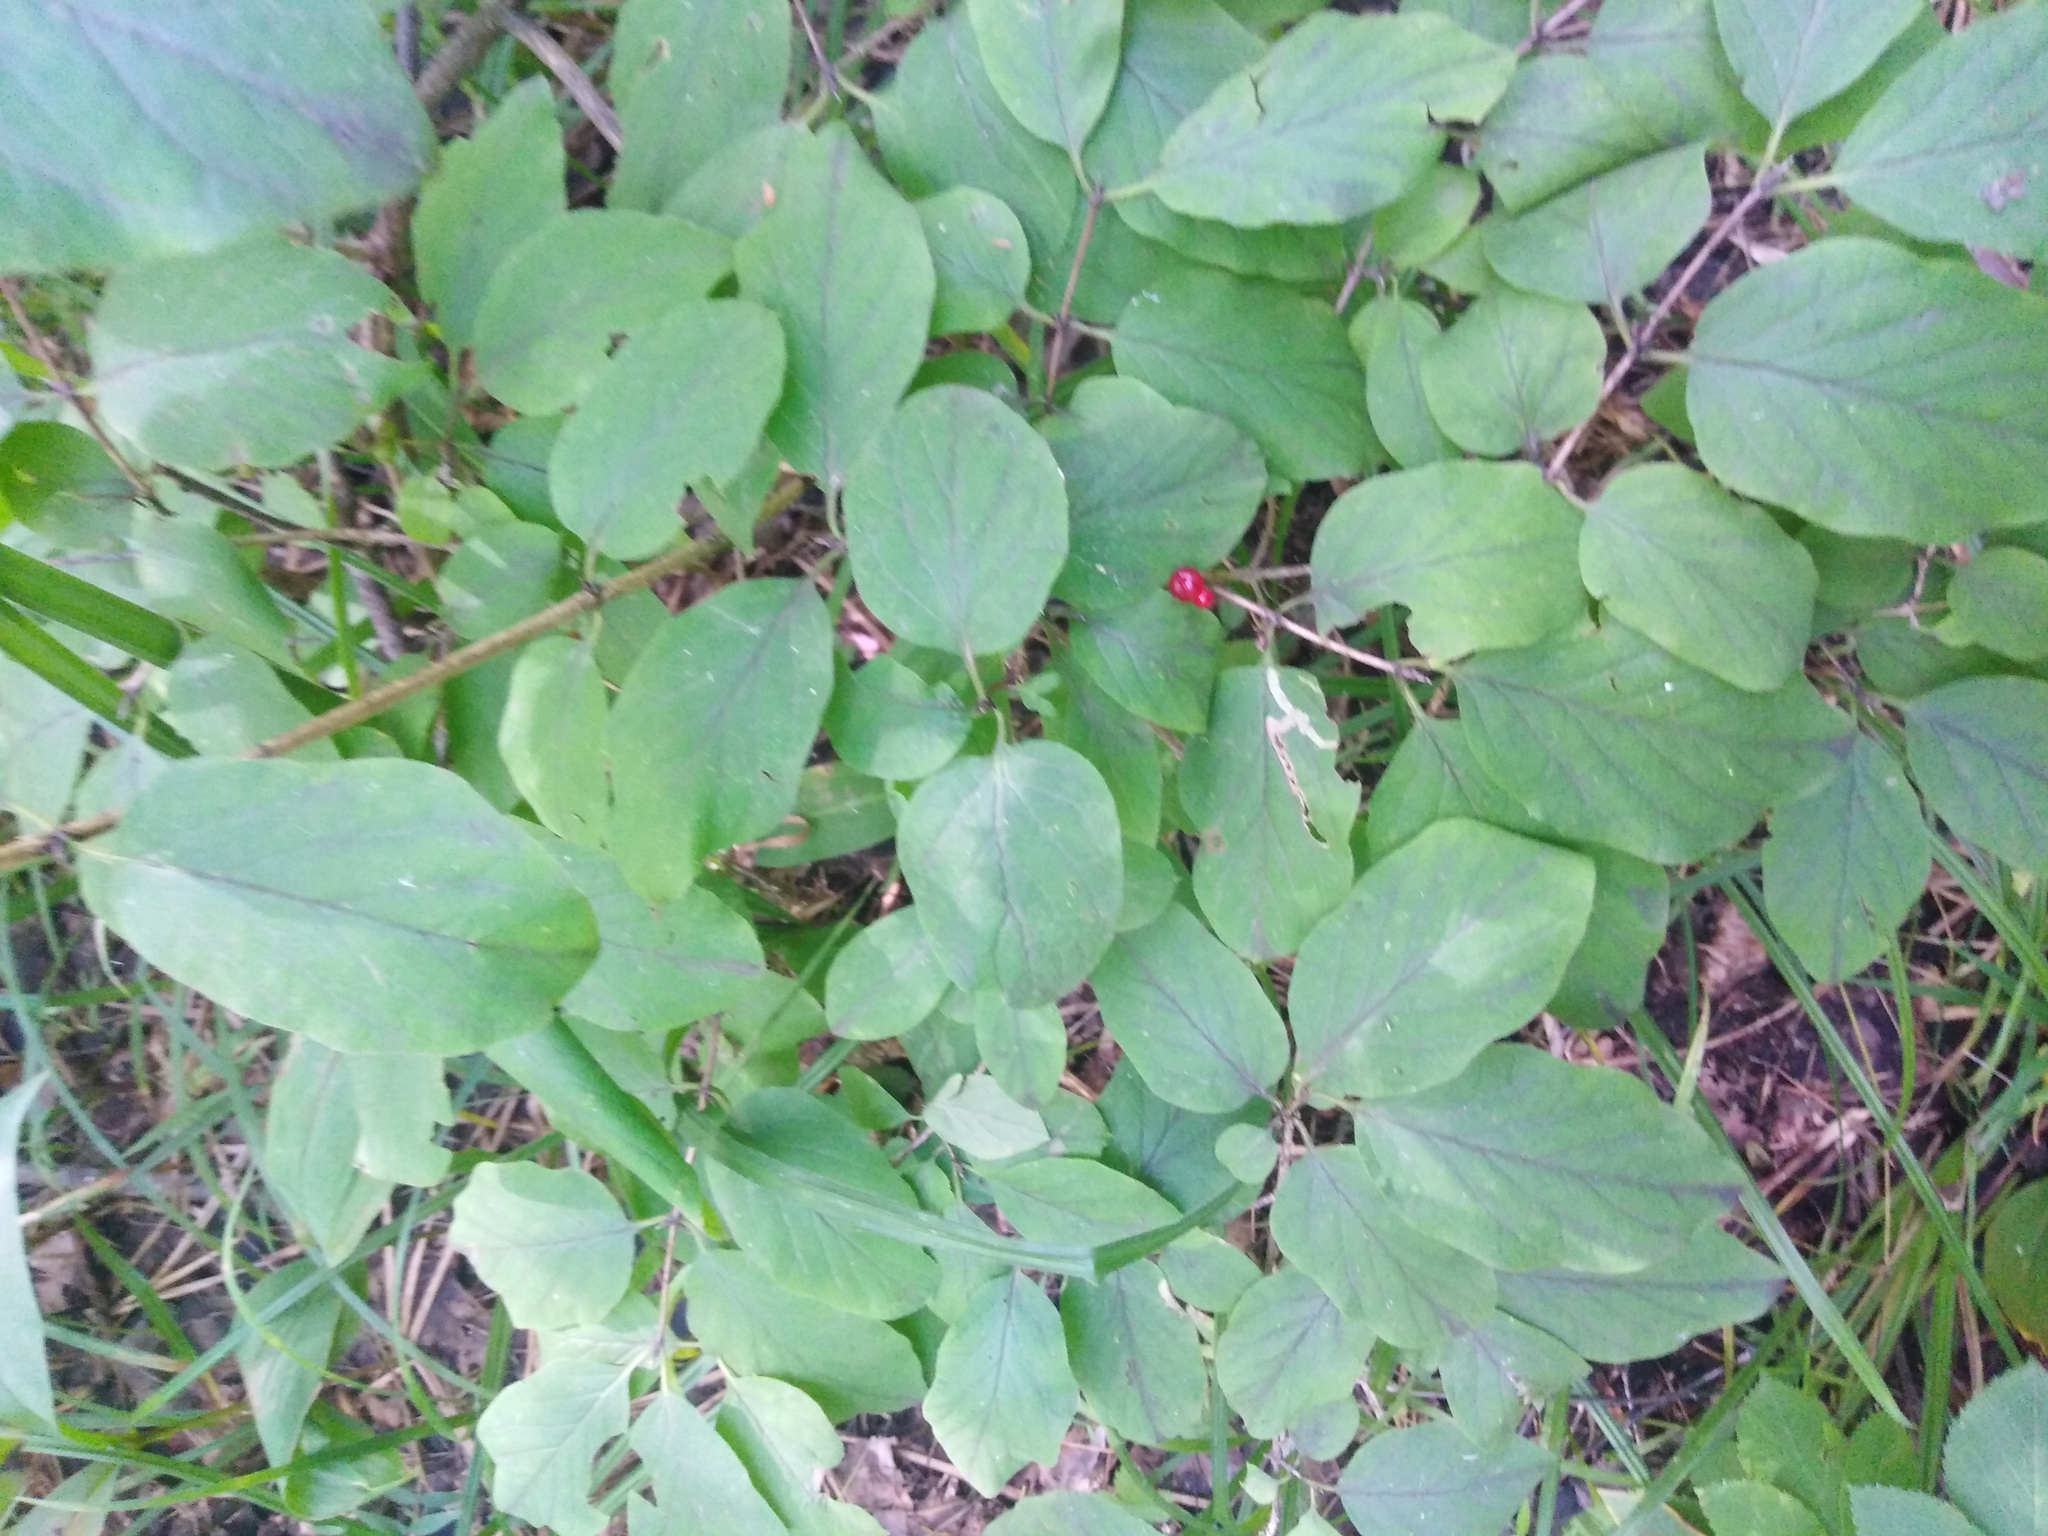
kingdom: Plantae
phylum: Tracheophyta
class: Magnoliopsida
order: Dipsacales
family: Caprifoliaceae
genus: Lonicera
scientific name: Lonicera xylosteum
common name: Fly honeysuckle
